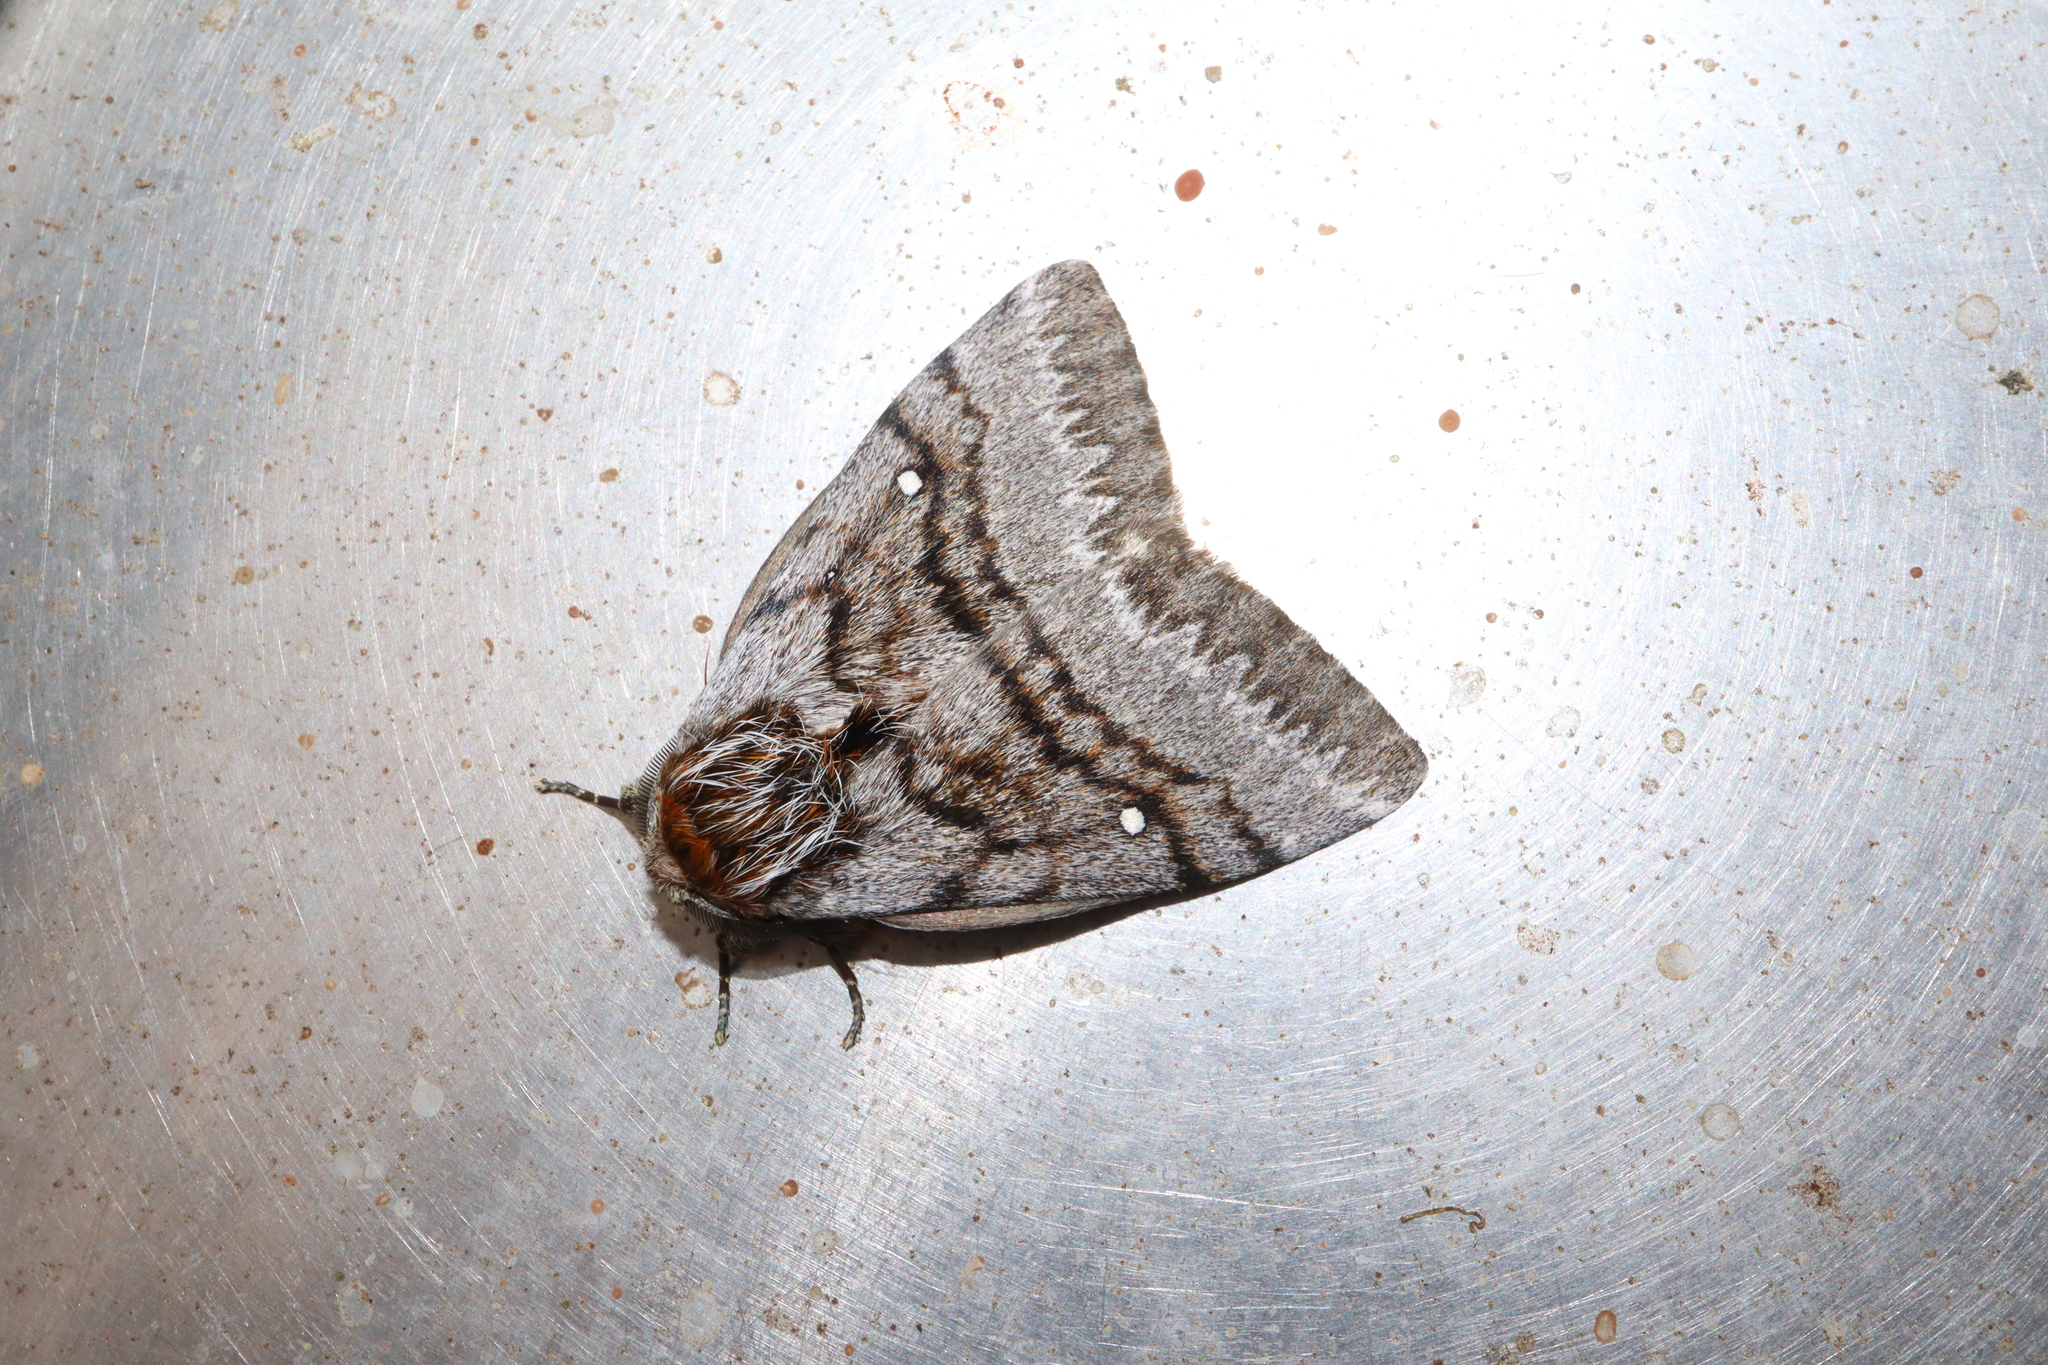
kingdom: Animalia
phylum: Arthropoda
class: Insecta
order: Lepidoptera
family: Anthelidae
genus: Anthela
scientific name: Anthela xantharcha
